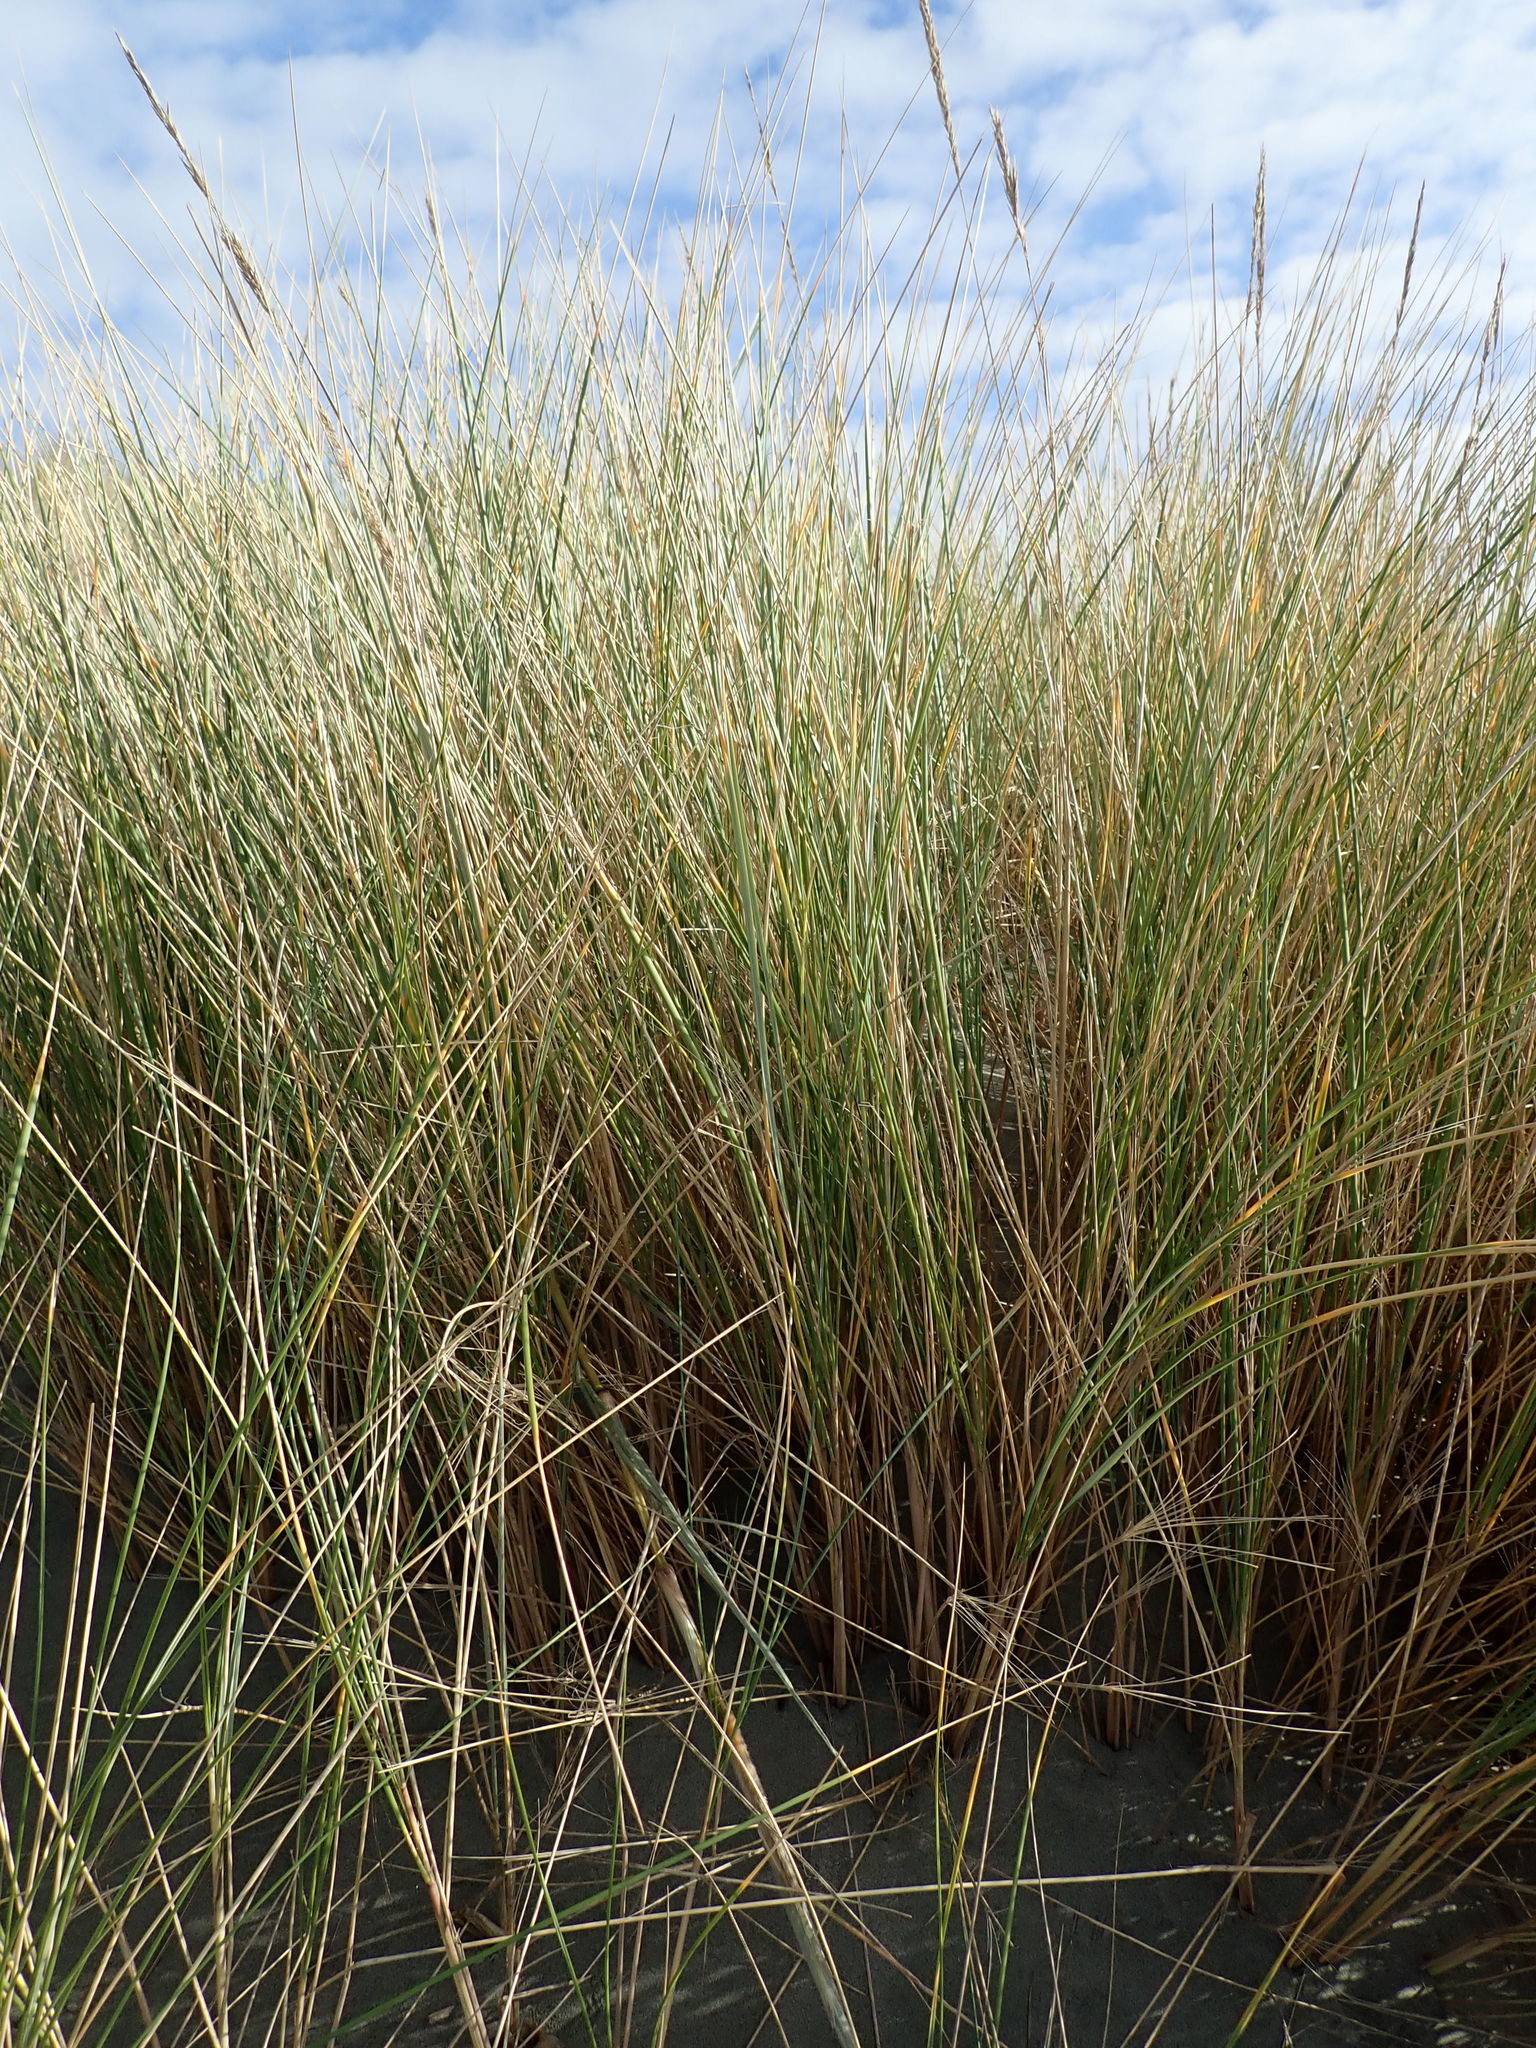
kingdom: Plantae
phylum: Tracheophyta
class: Liliopsida
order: Poales
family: Poaceae
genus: Calamagrostis
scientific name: Calamagrostis arenaria
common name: European beachgrass
